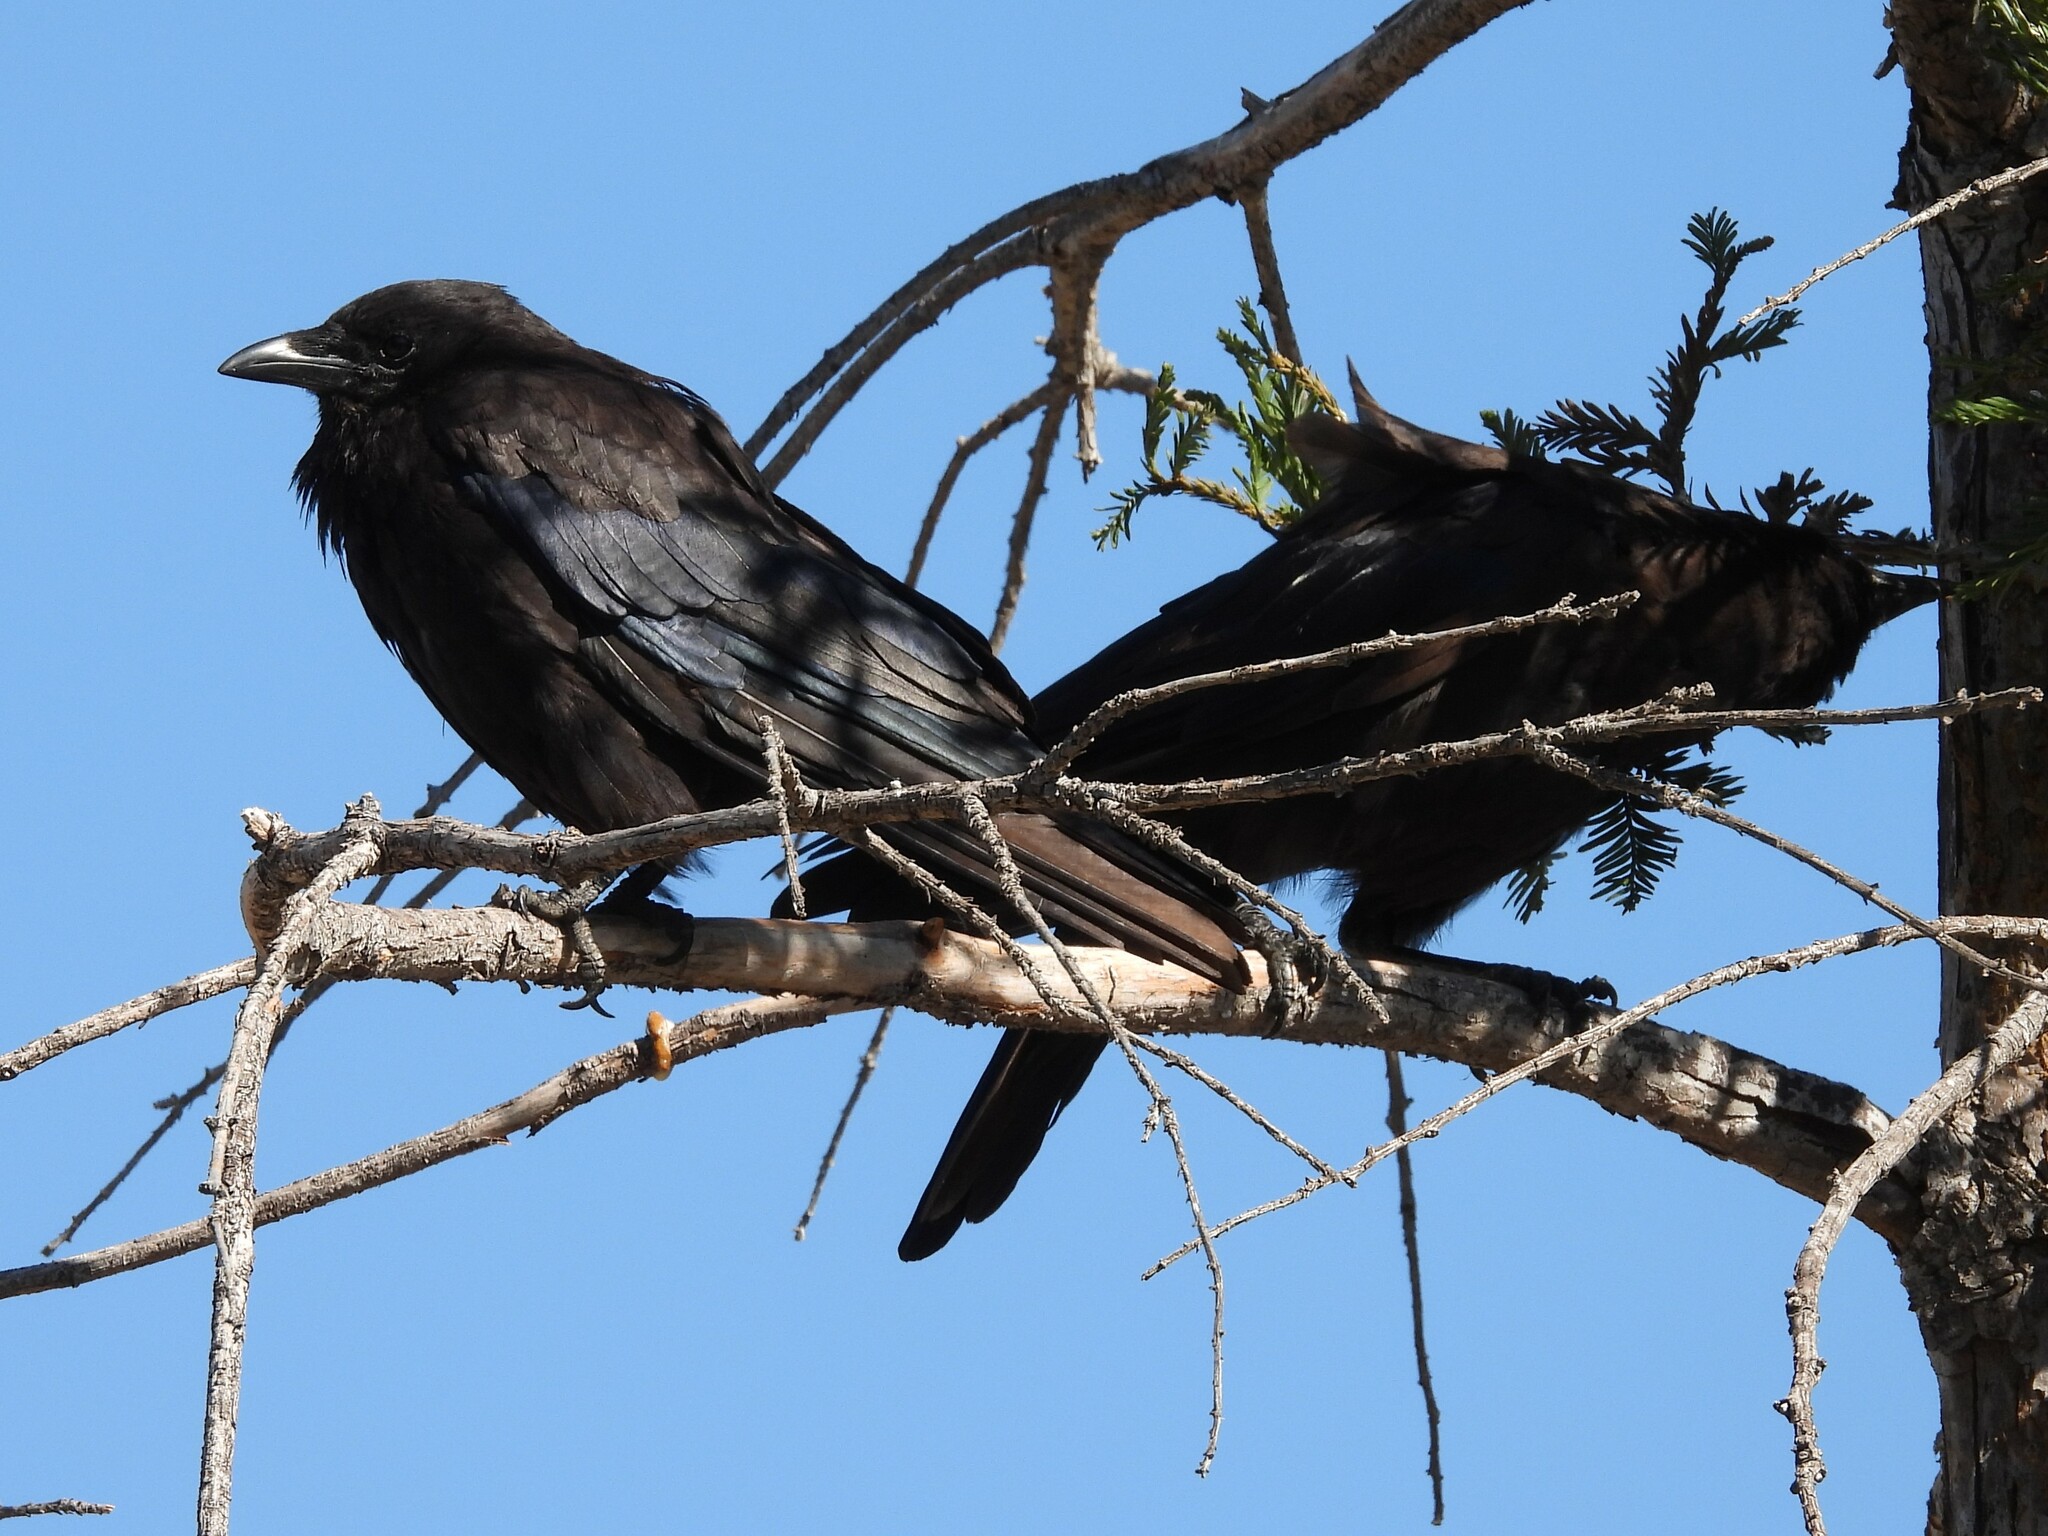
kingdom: Animalia
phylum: Chordata
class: Aves
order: Passeriformes
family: Corvidae
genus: Corvus
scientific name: Corvus brachyrhynchos
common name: American crow
